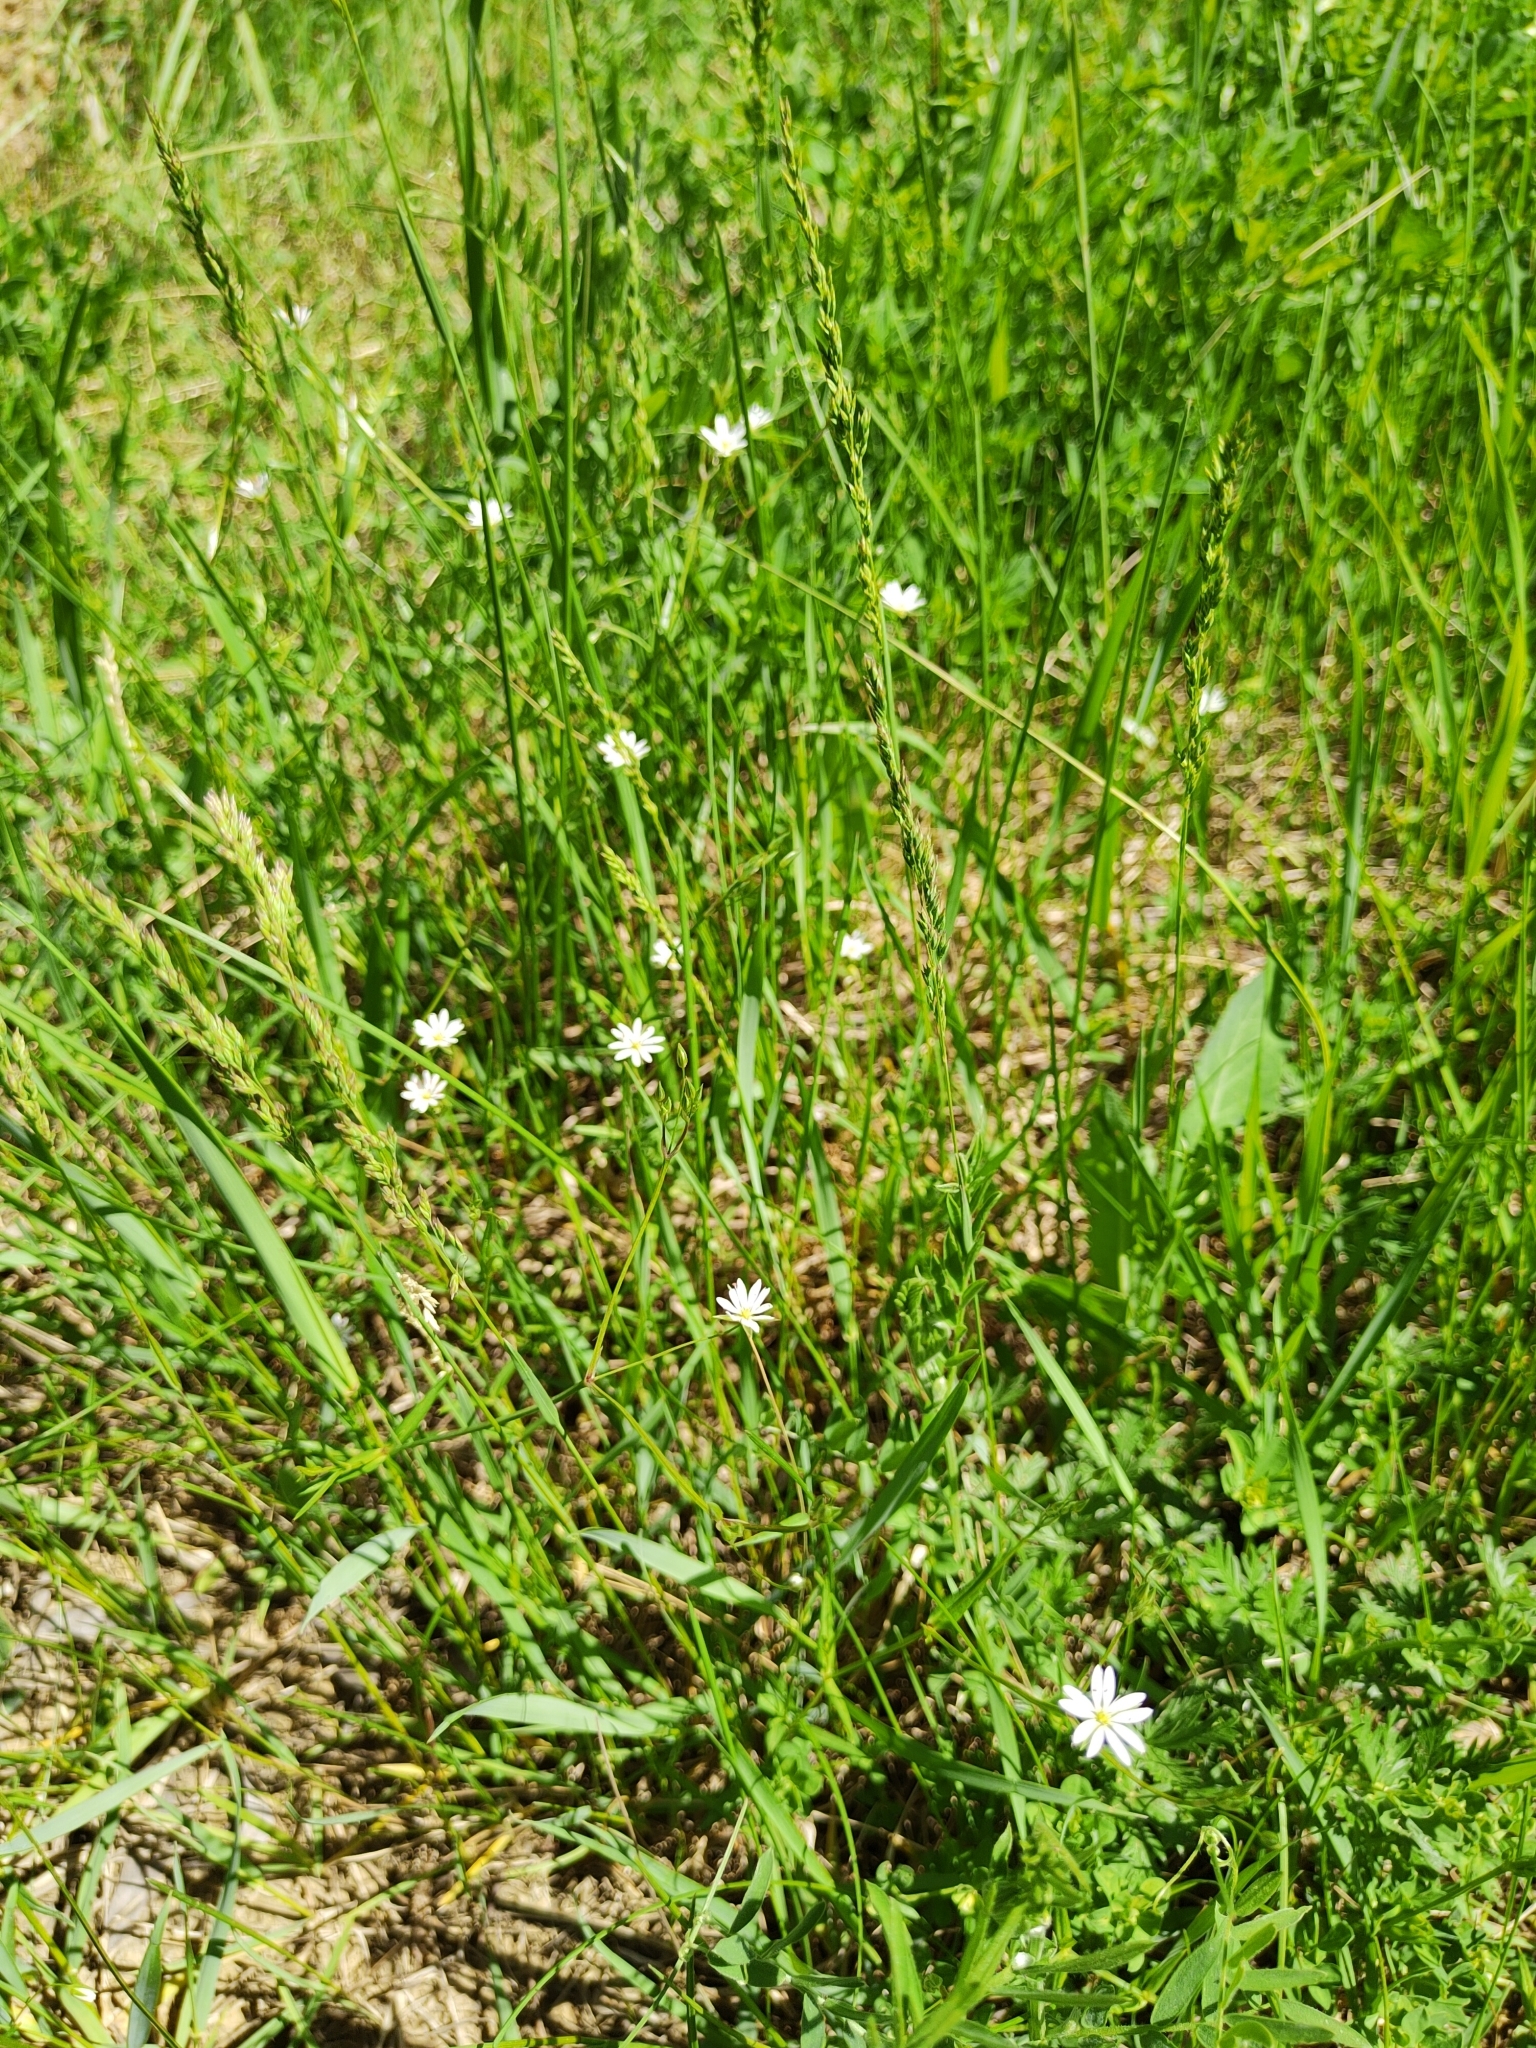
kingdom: Plantae
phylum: Tracheophyta
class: Magnoliopsida
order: Caryophyllales
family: Caryophyllaceae
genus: Stellaria
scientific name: Stellaria graminea
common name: Grass-like starwort
